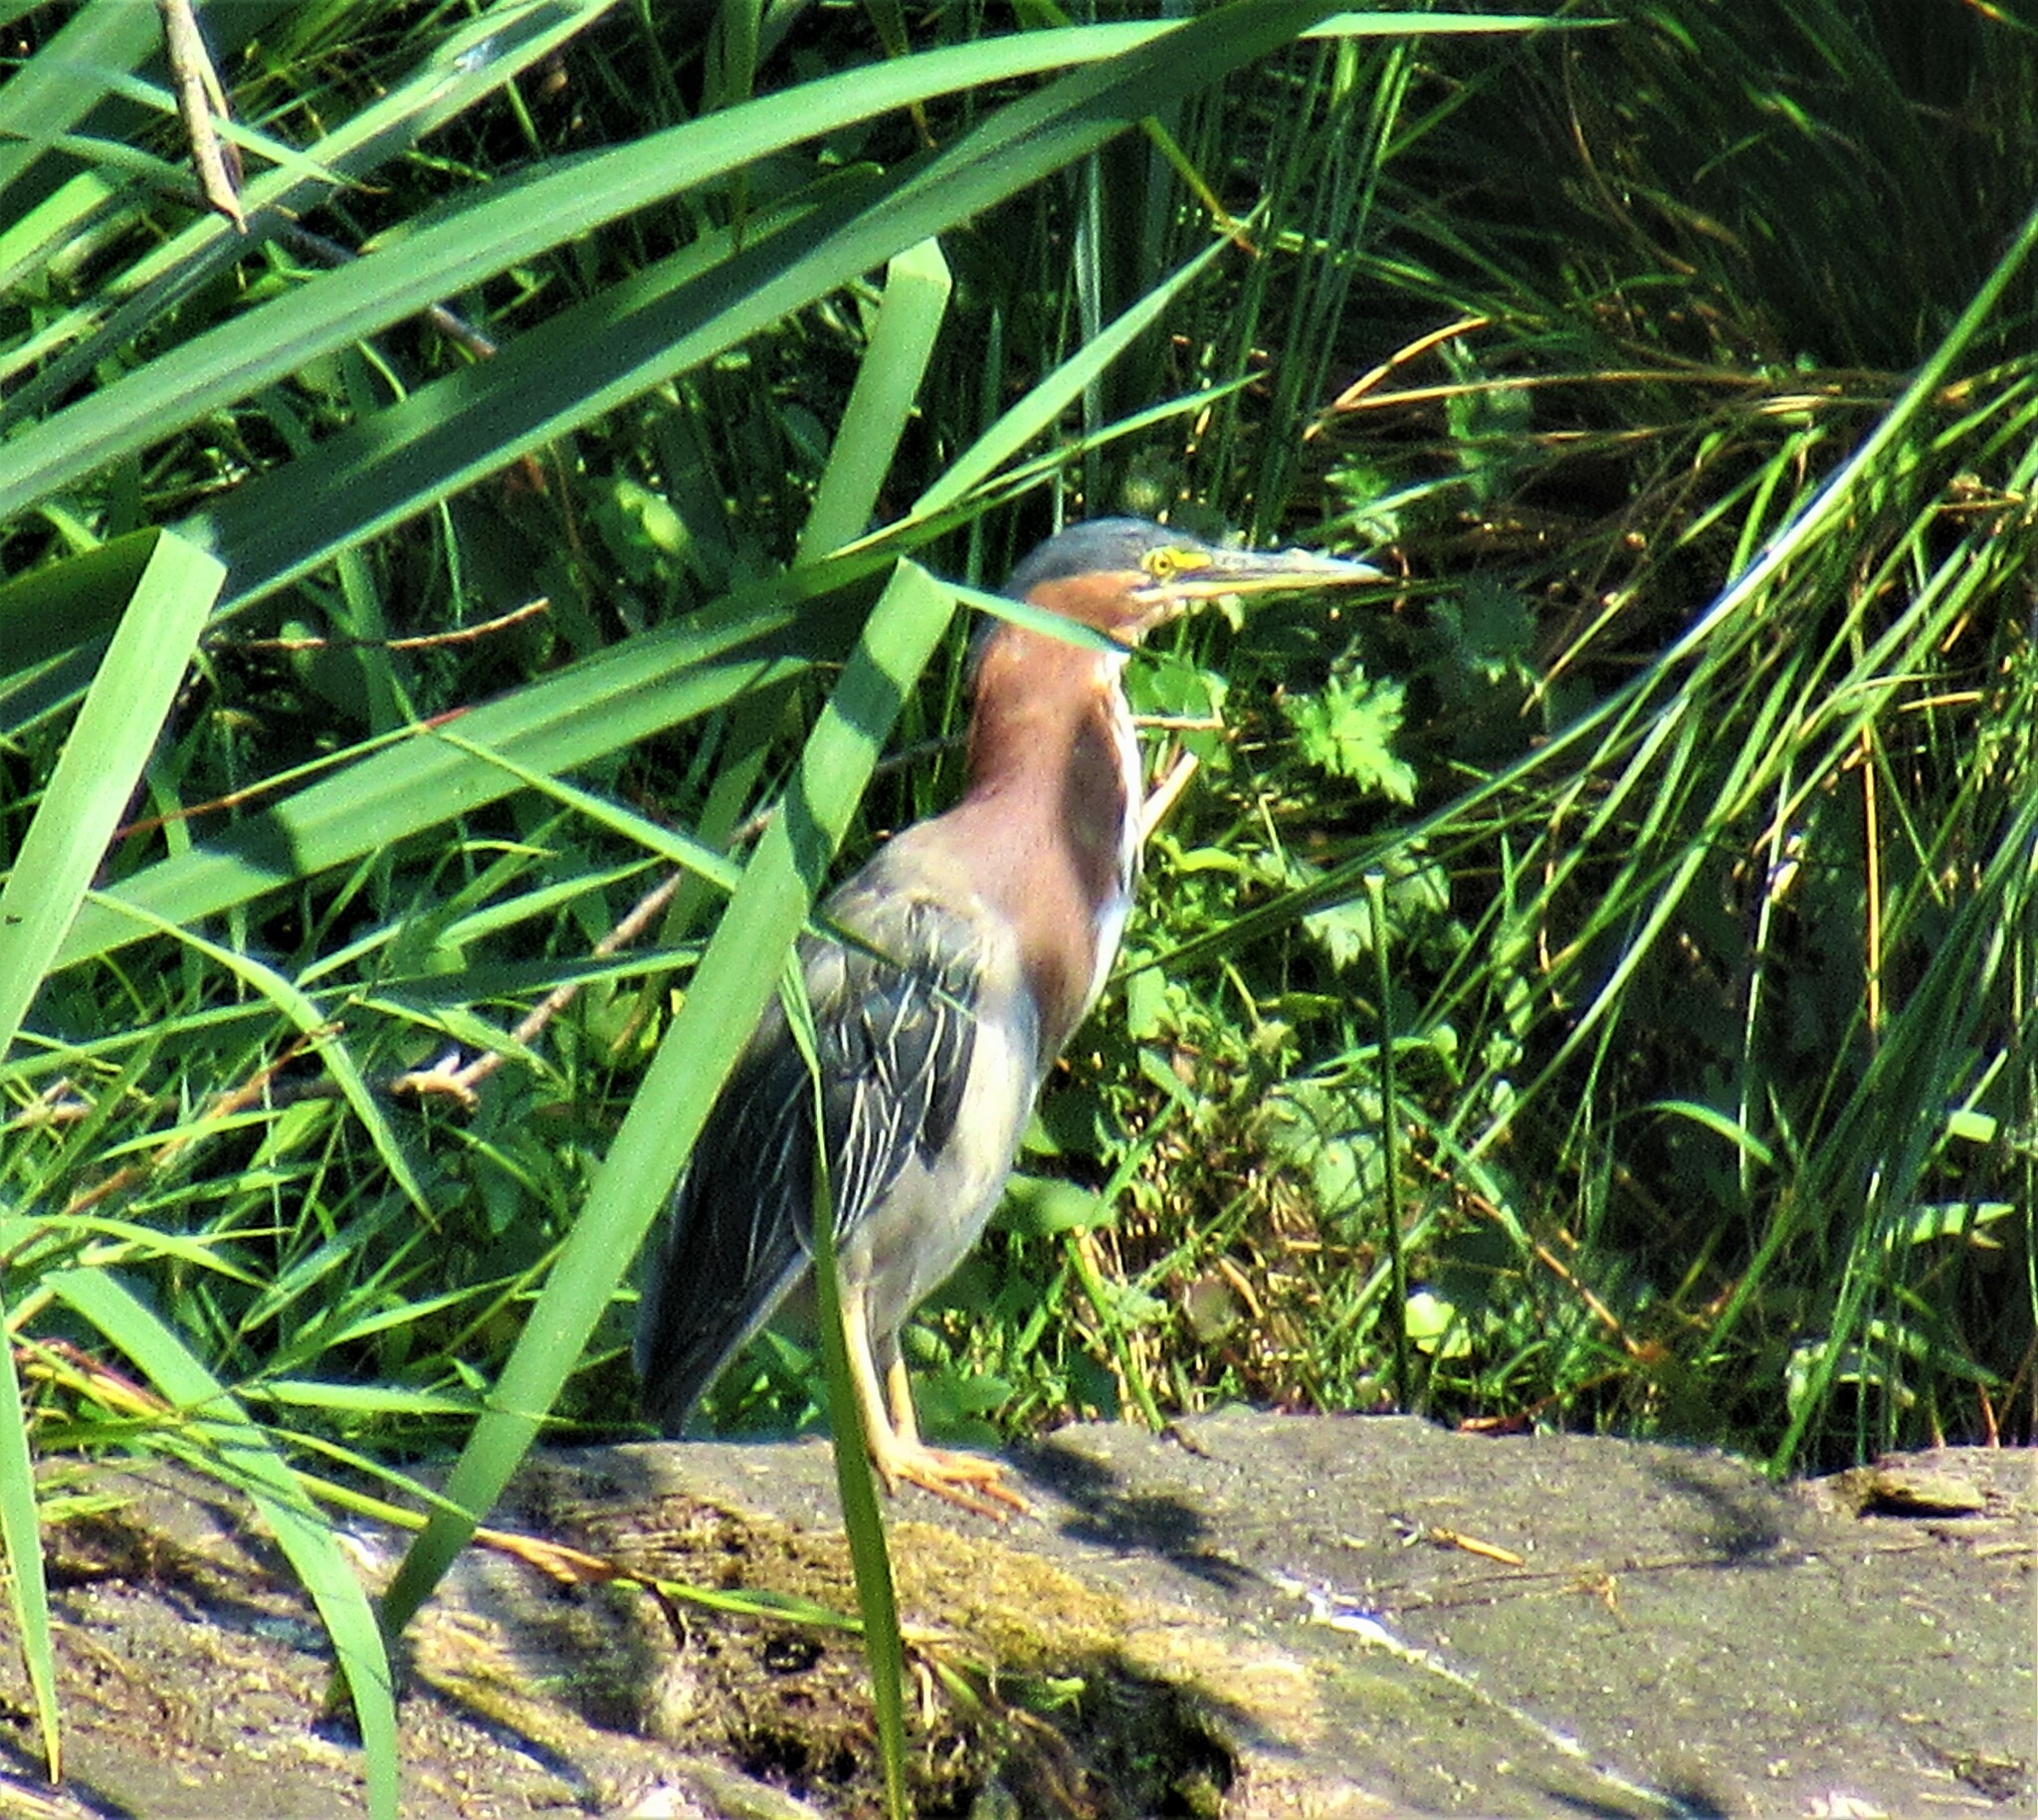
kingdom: Animalia
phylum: Chordata
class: Aves
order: Pelecaniformes
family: Ardeidae
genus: Butorides
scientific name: Butorides virescens
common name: Green heron
